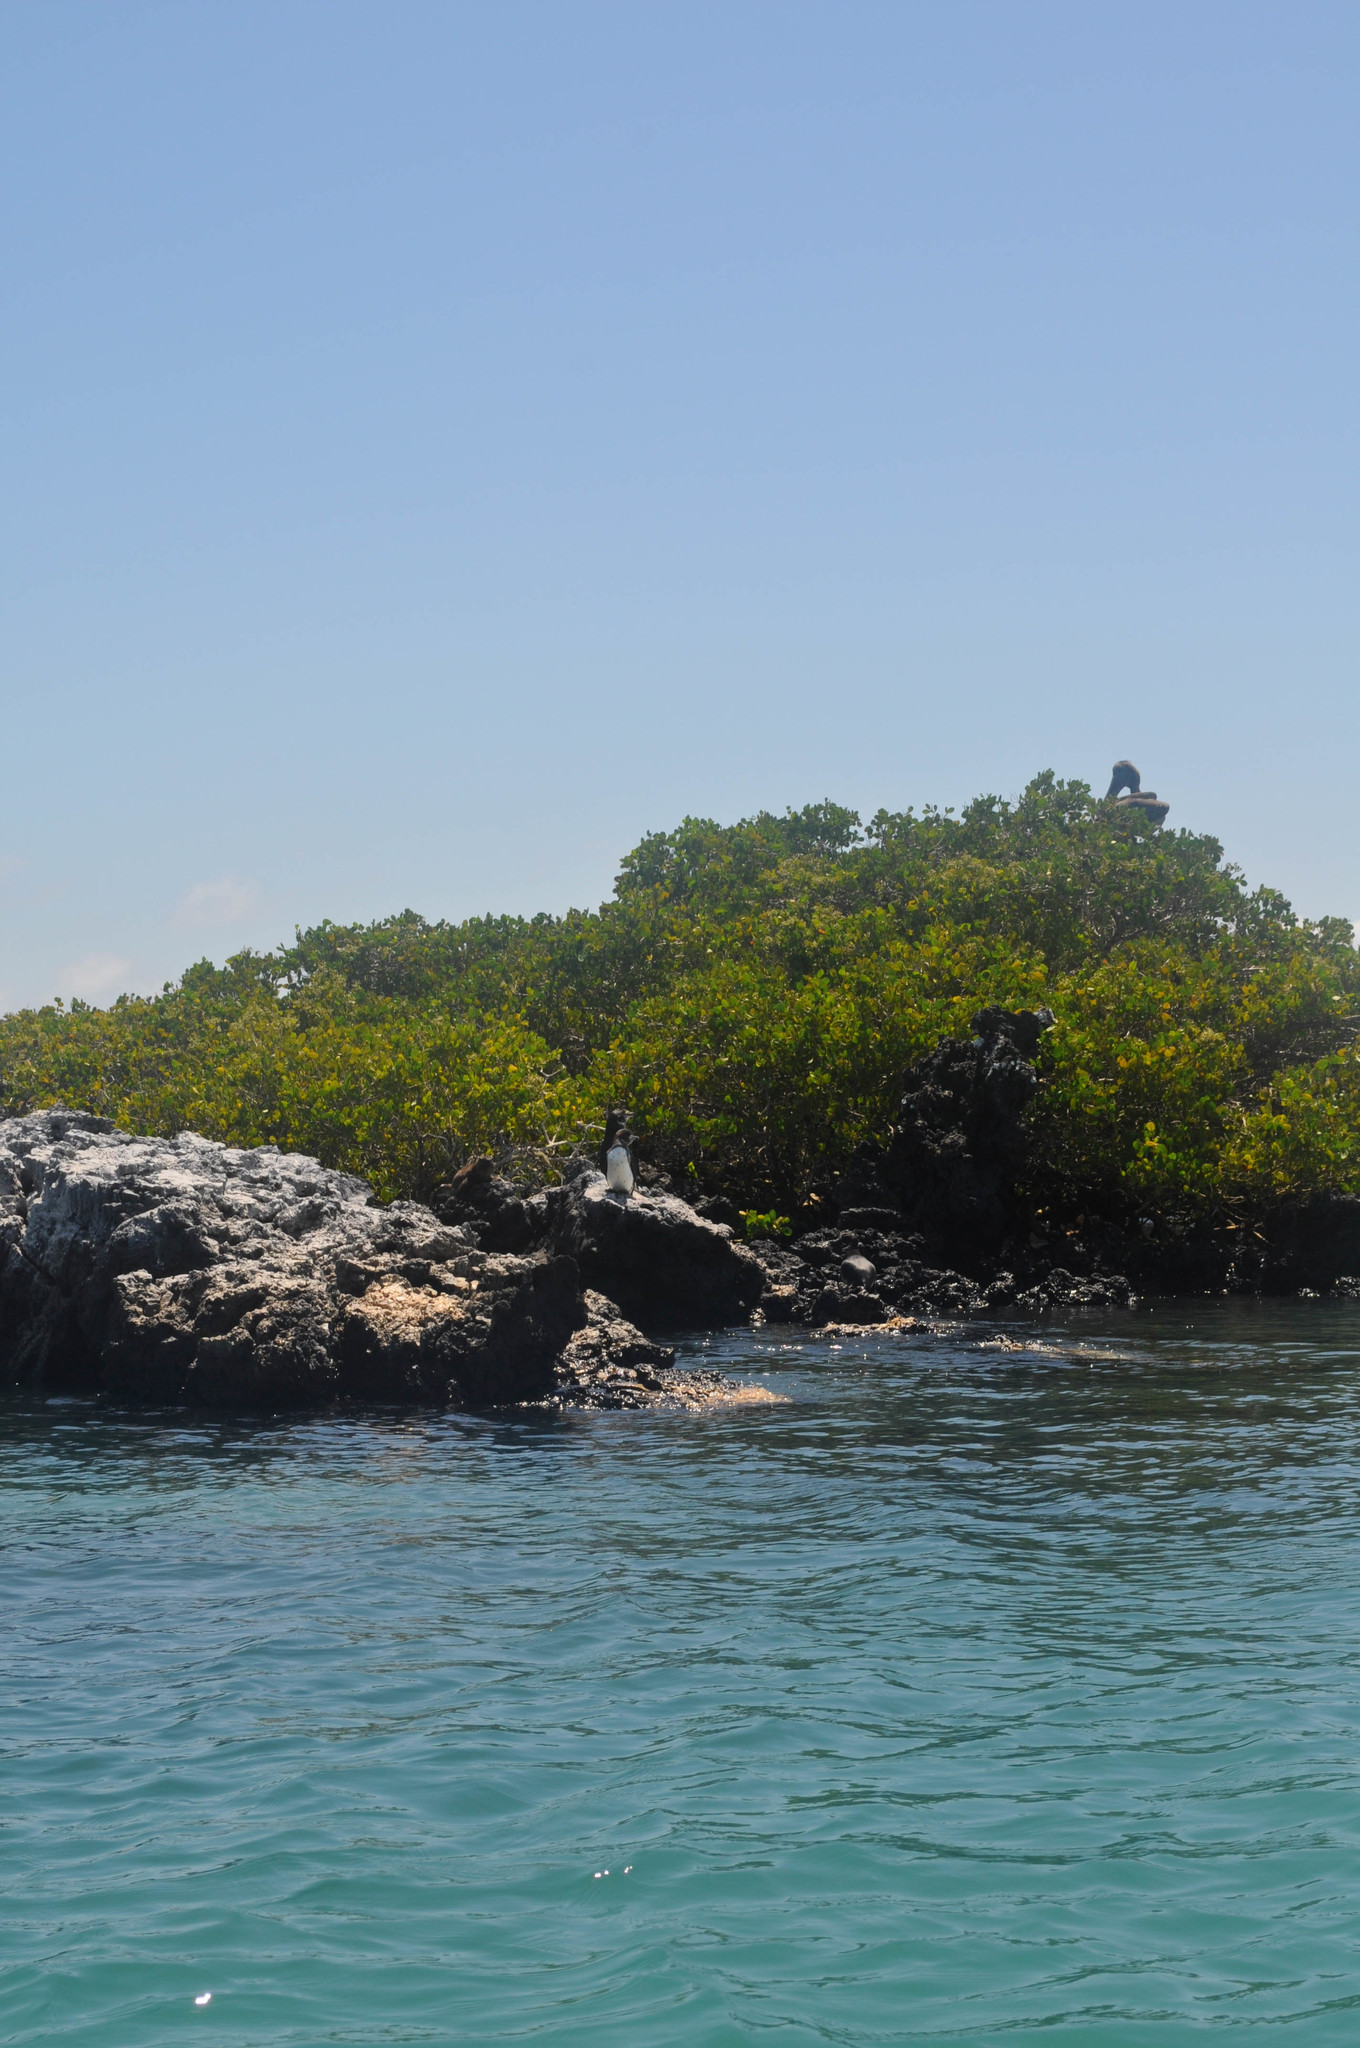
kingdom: Animalia
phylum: Chordata
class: Aves
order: Pelecaniformes
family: Pelecanidae
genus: Pelecanus
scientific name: Pelecanus occidentalis
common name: Brown pelican
